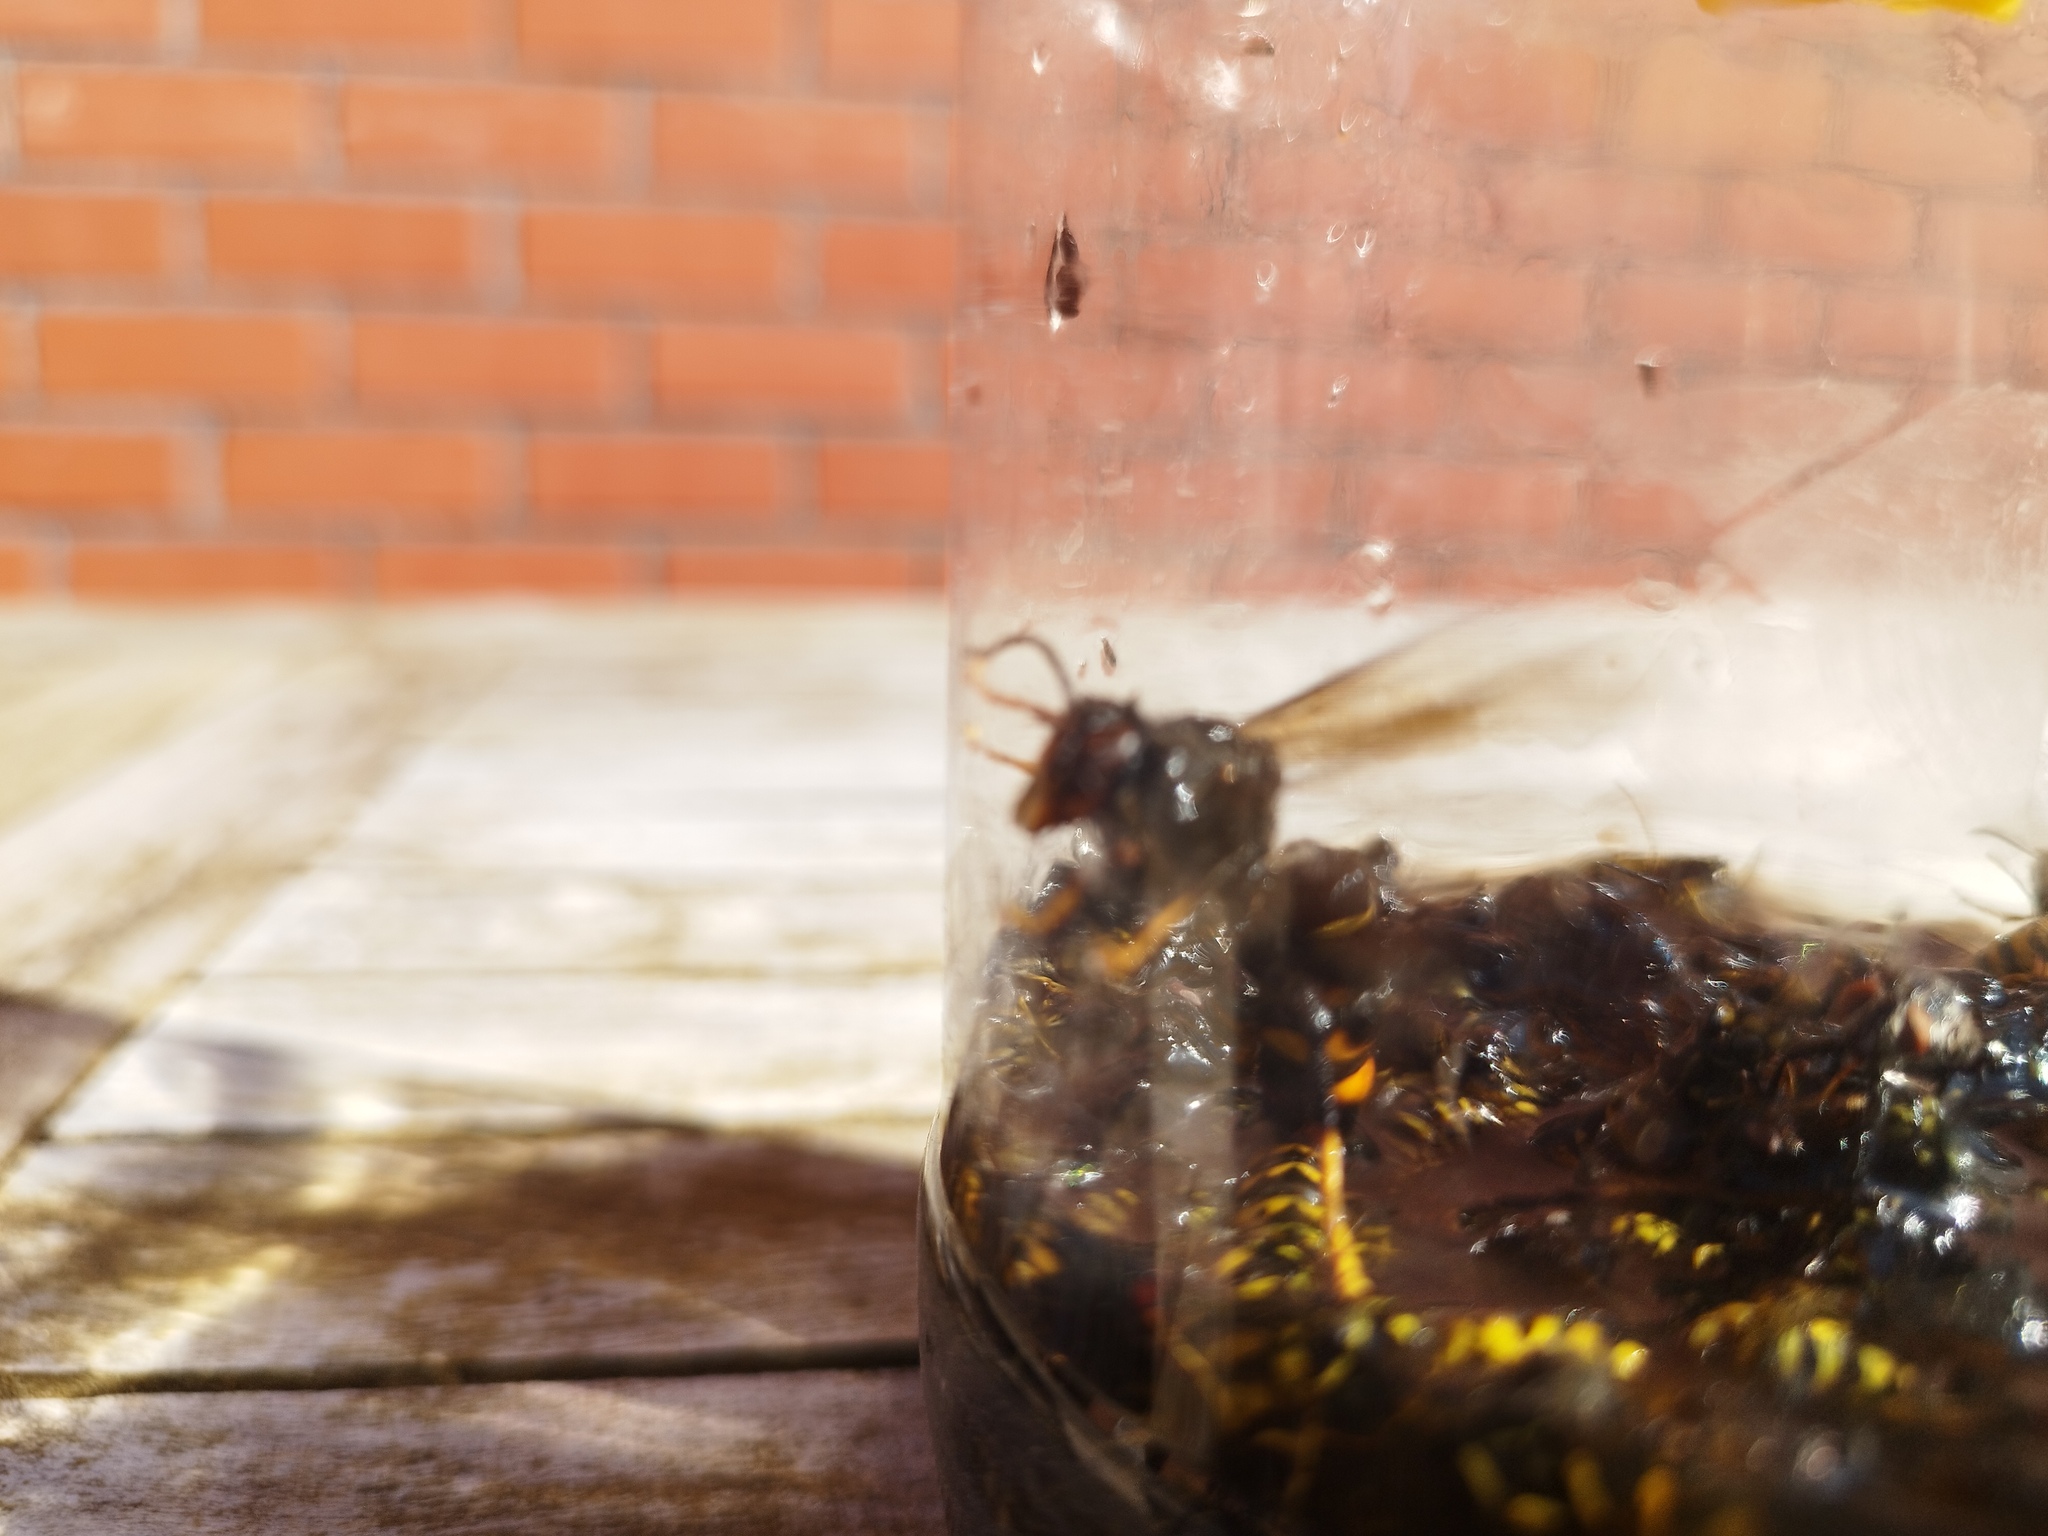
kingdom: Animalia
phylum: Arthropoda
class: Insecta
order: Hymenoptera
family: Vespidae
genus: Vespa
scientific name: Vespa velutina
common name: Asian hornet
